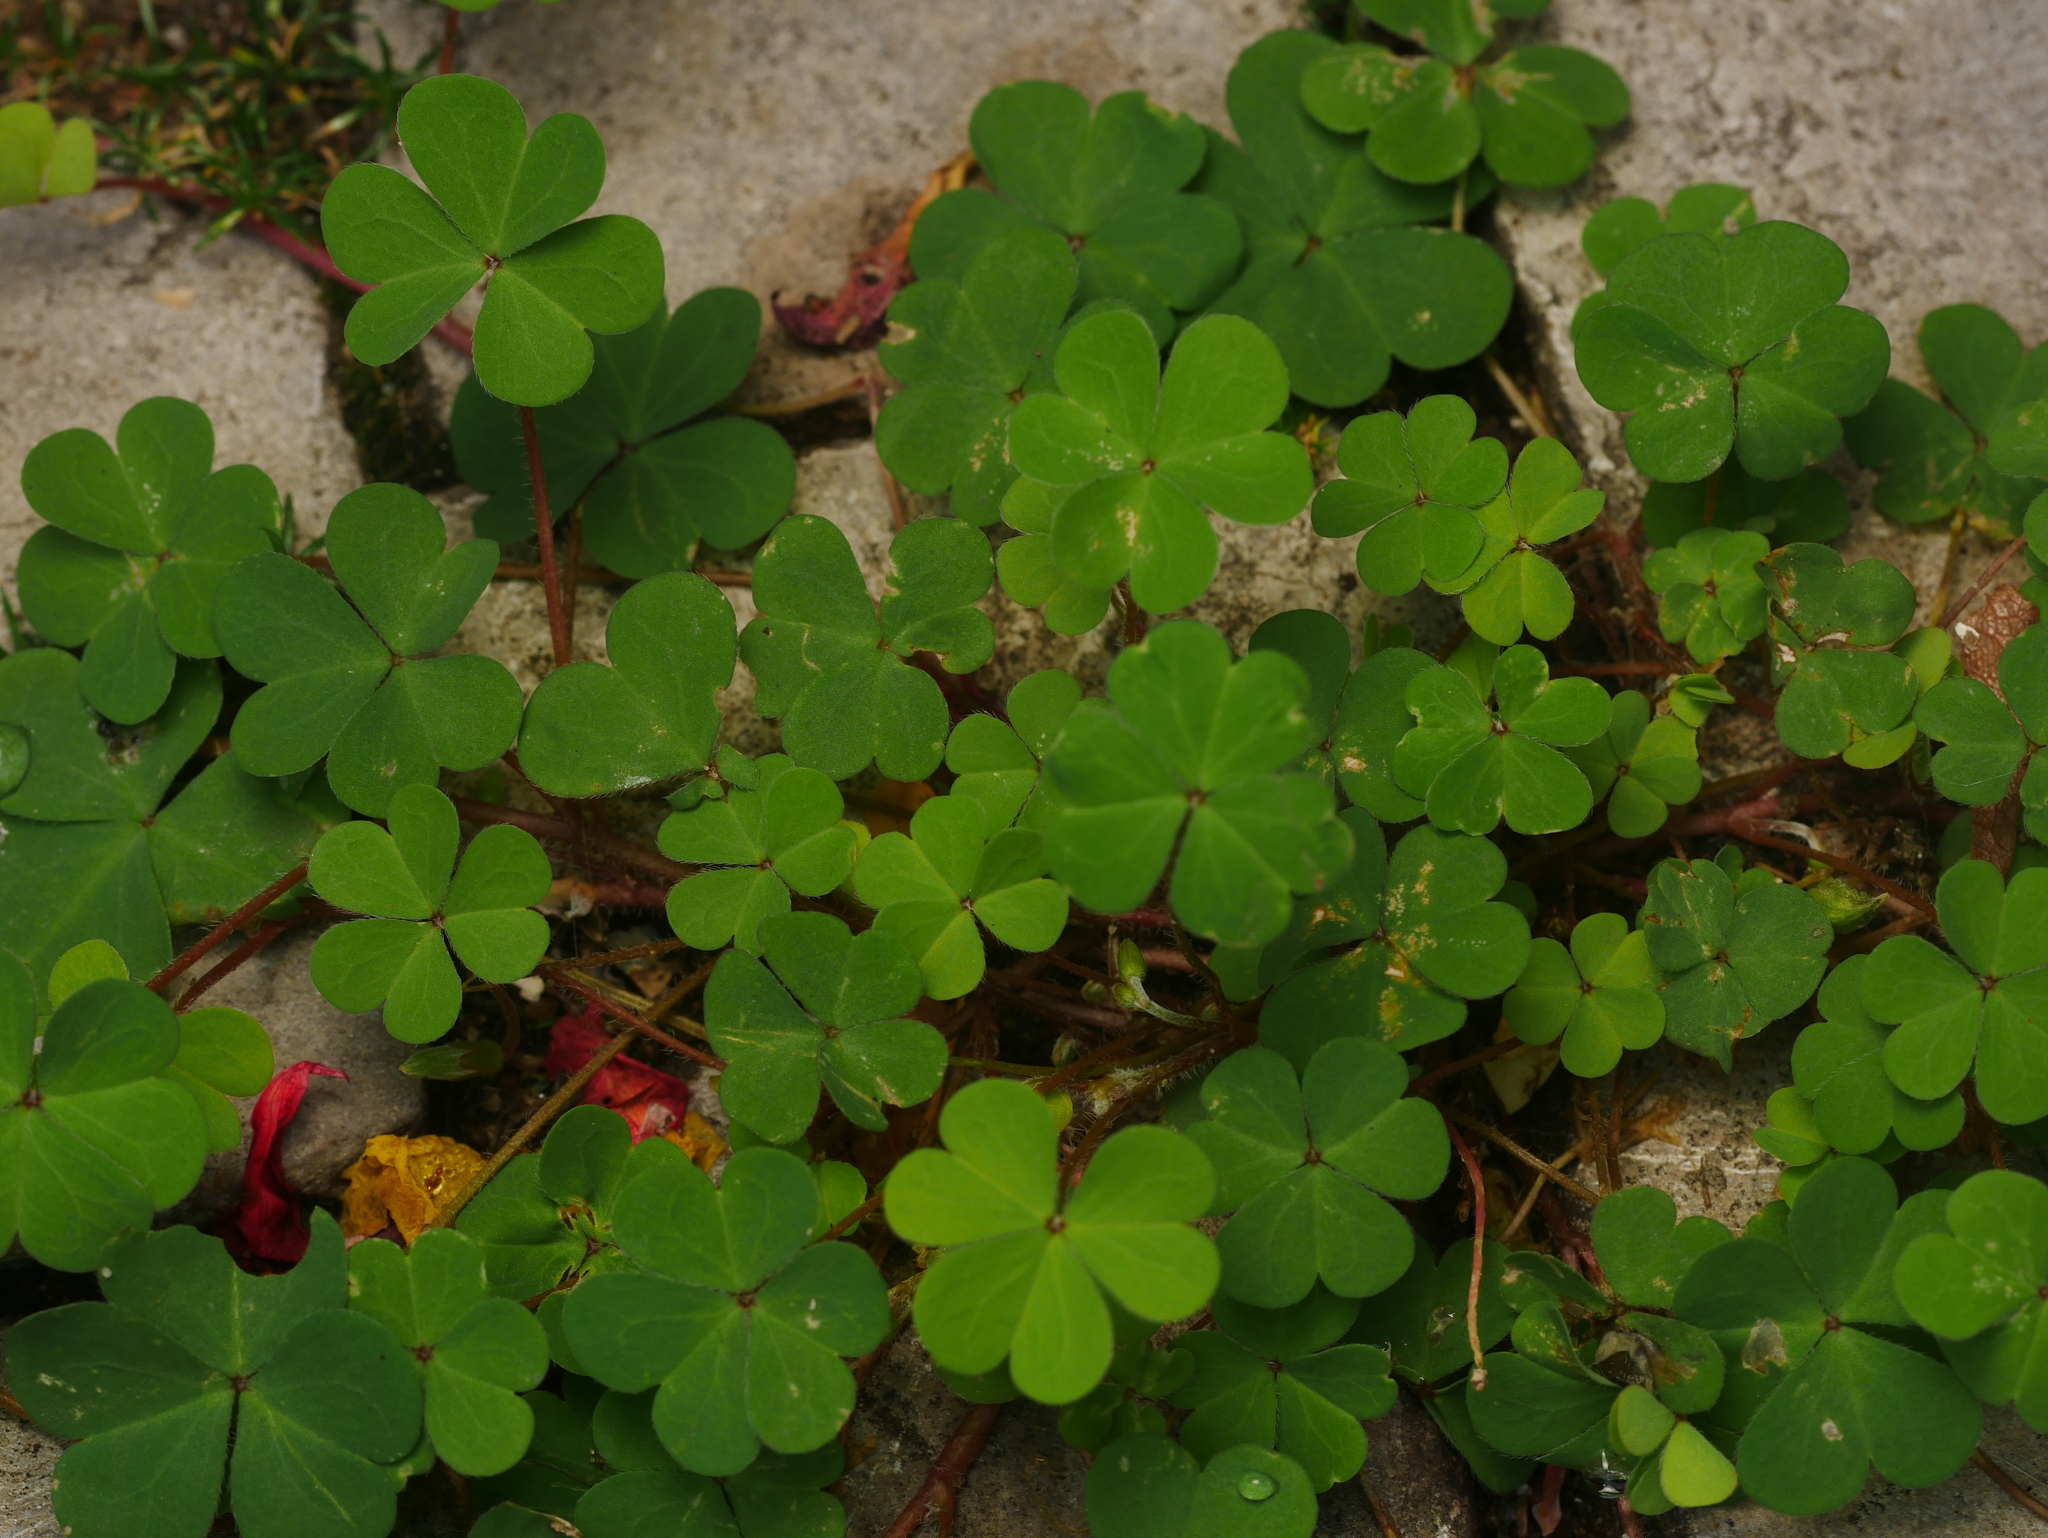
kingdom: Plantae
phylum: Tracheophyta
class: Magnoliopsida
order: Oxalidales
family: Oxalidaceae
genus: Oxalis
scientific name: Oxalis corniculata
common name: Procumbent yellow-sorrel
